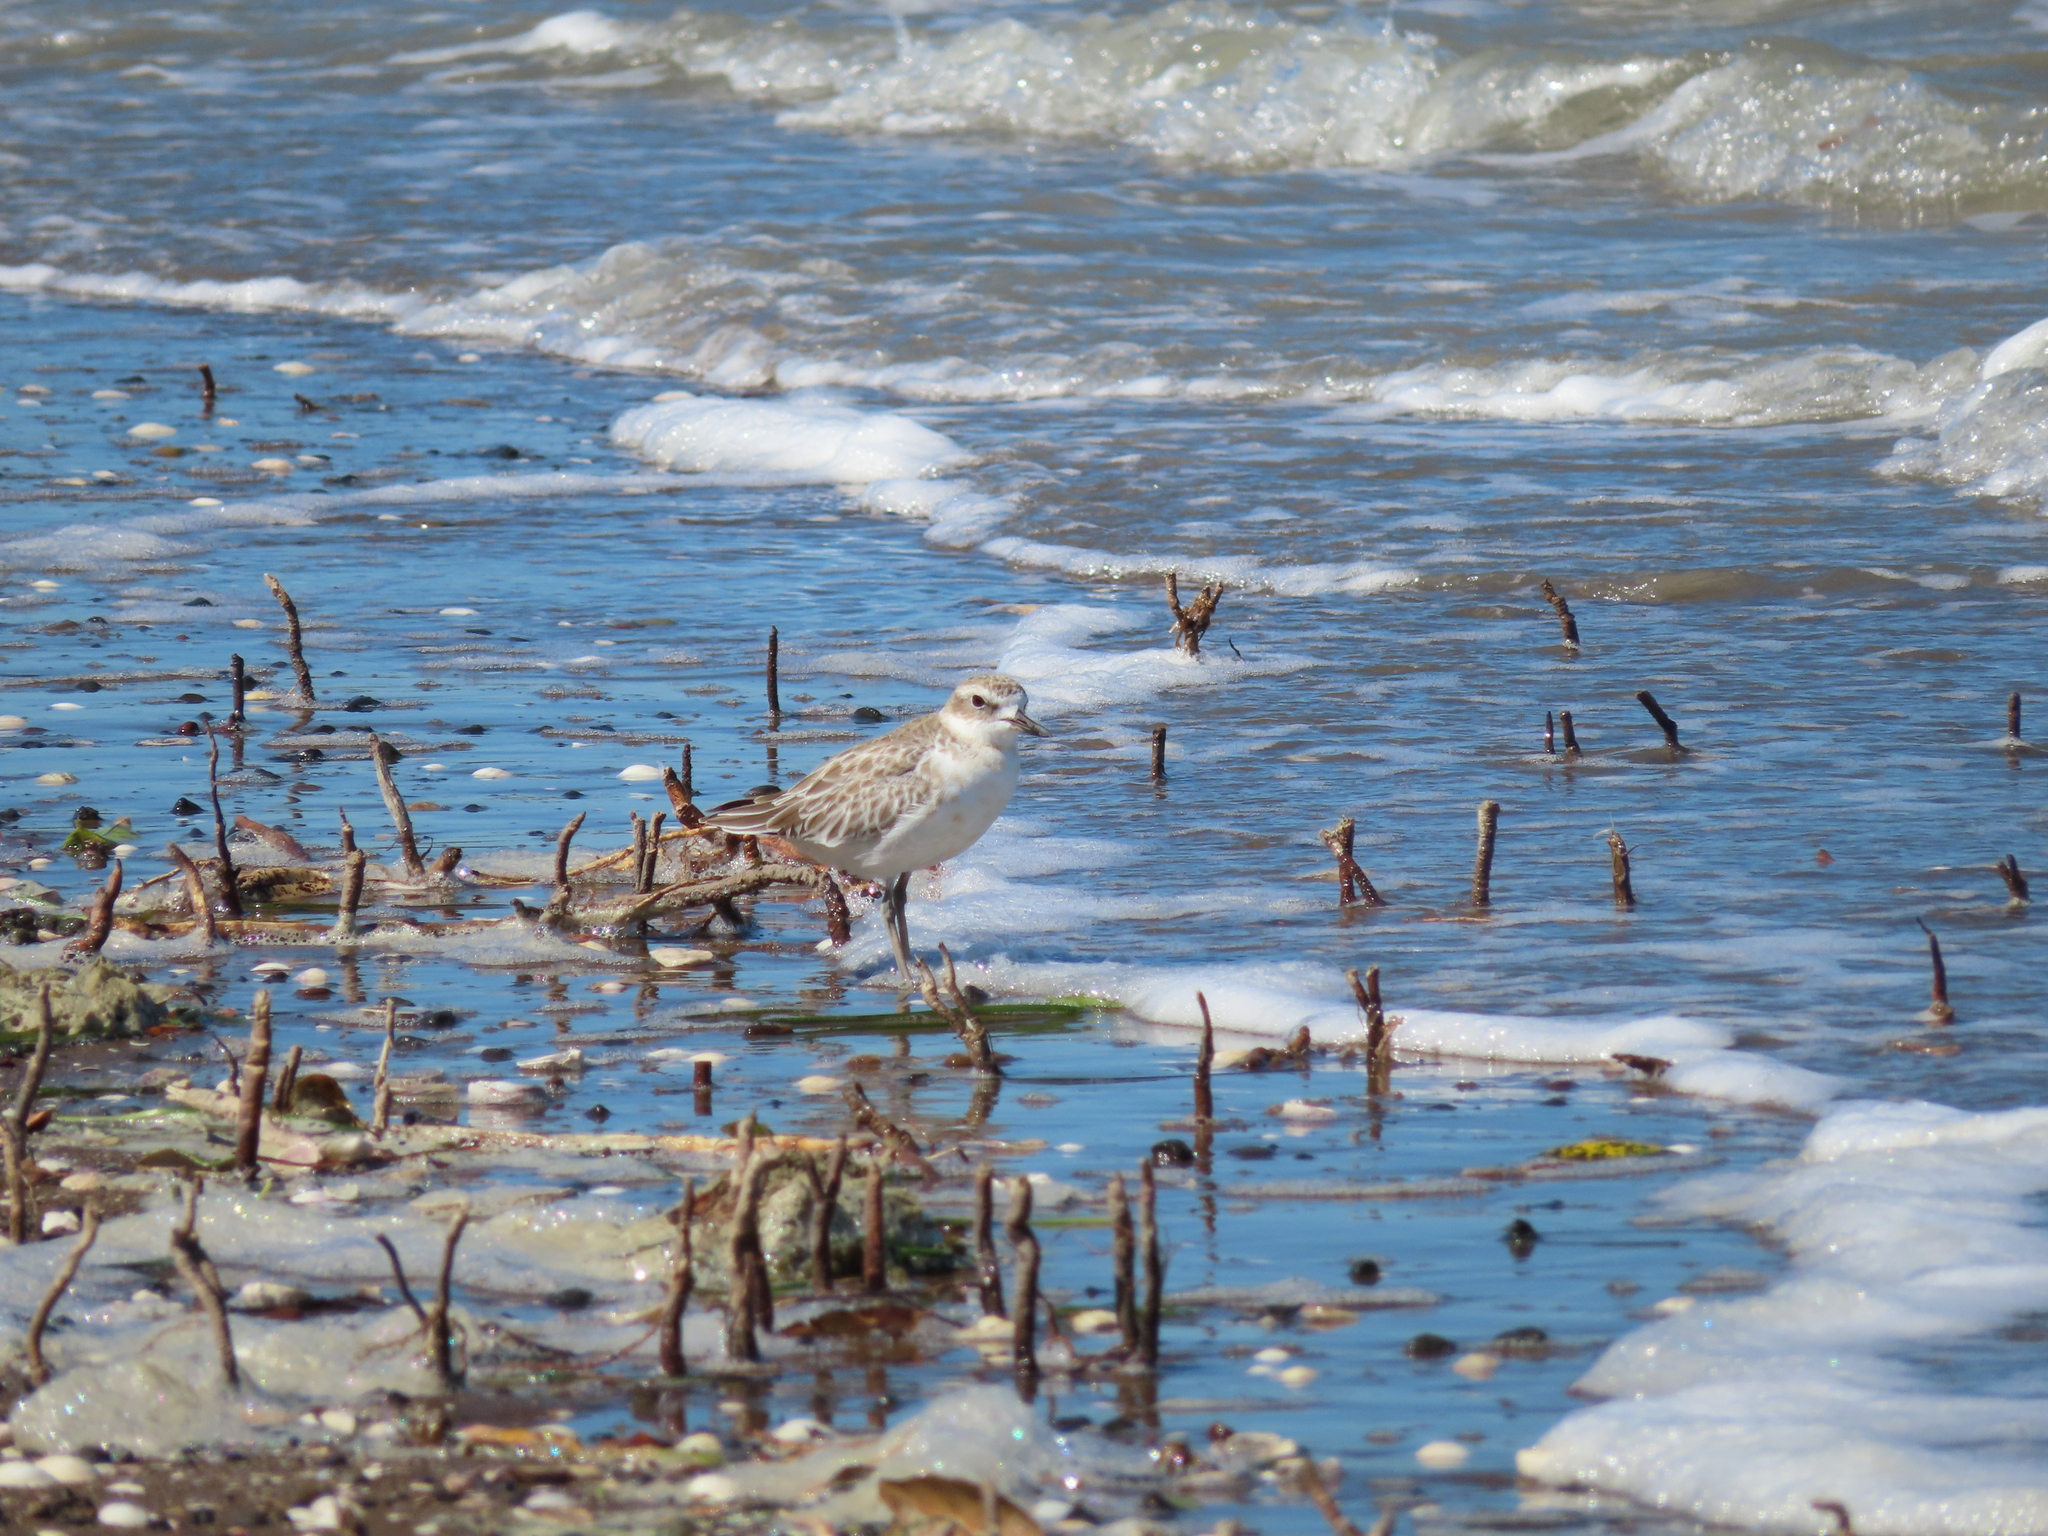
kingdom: Animalia
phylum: Chordata
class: Aves
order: Charadriiformes
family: Charadriidae
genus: Anarhynchus
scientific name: Anarhynchus
